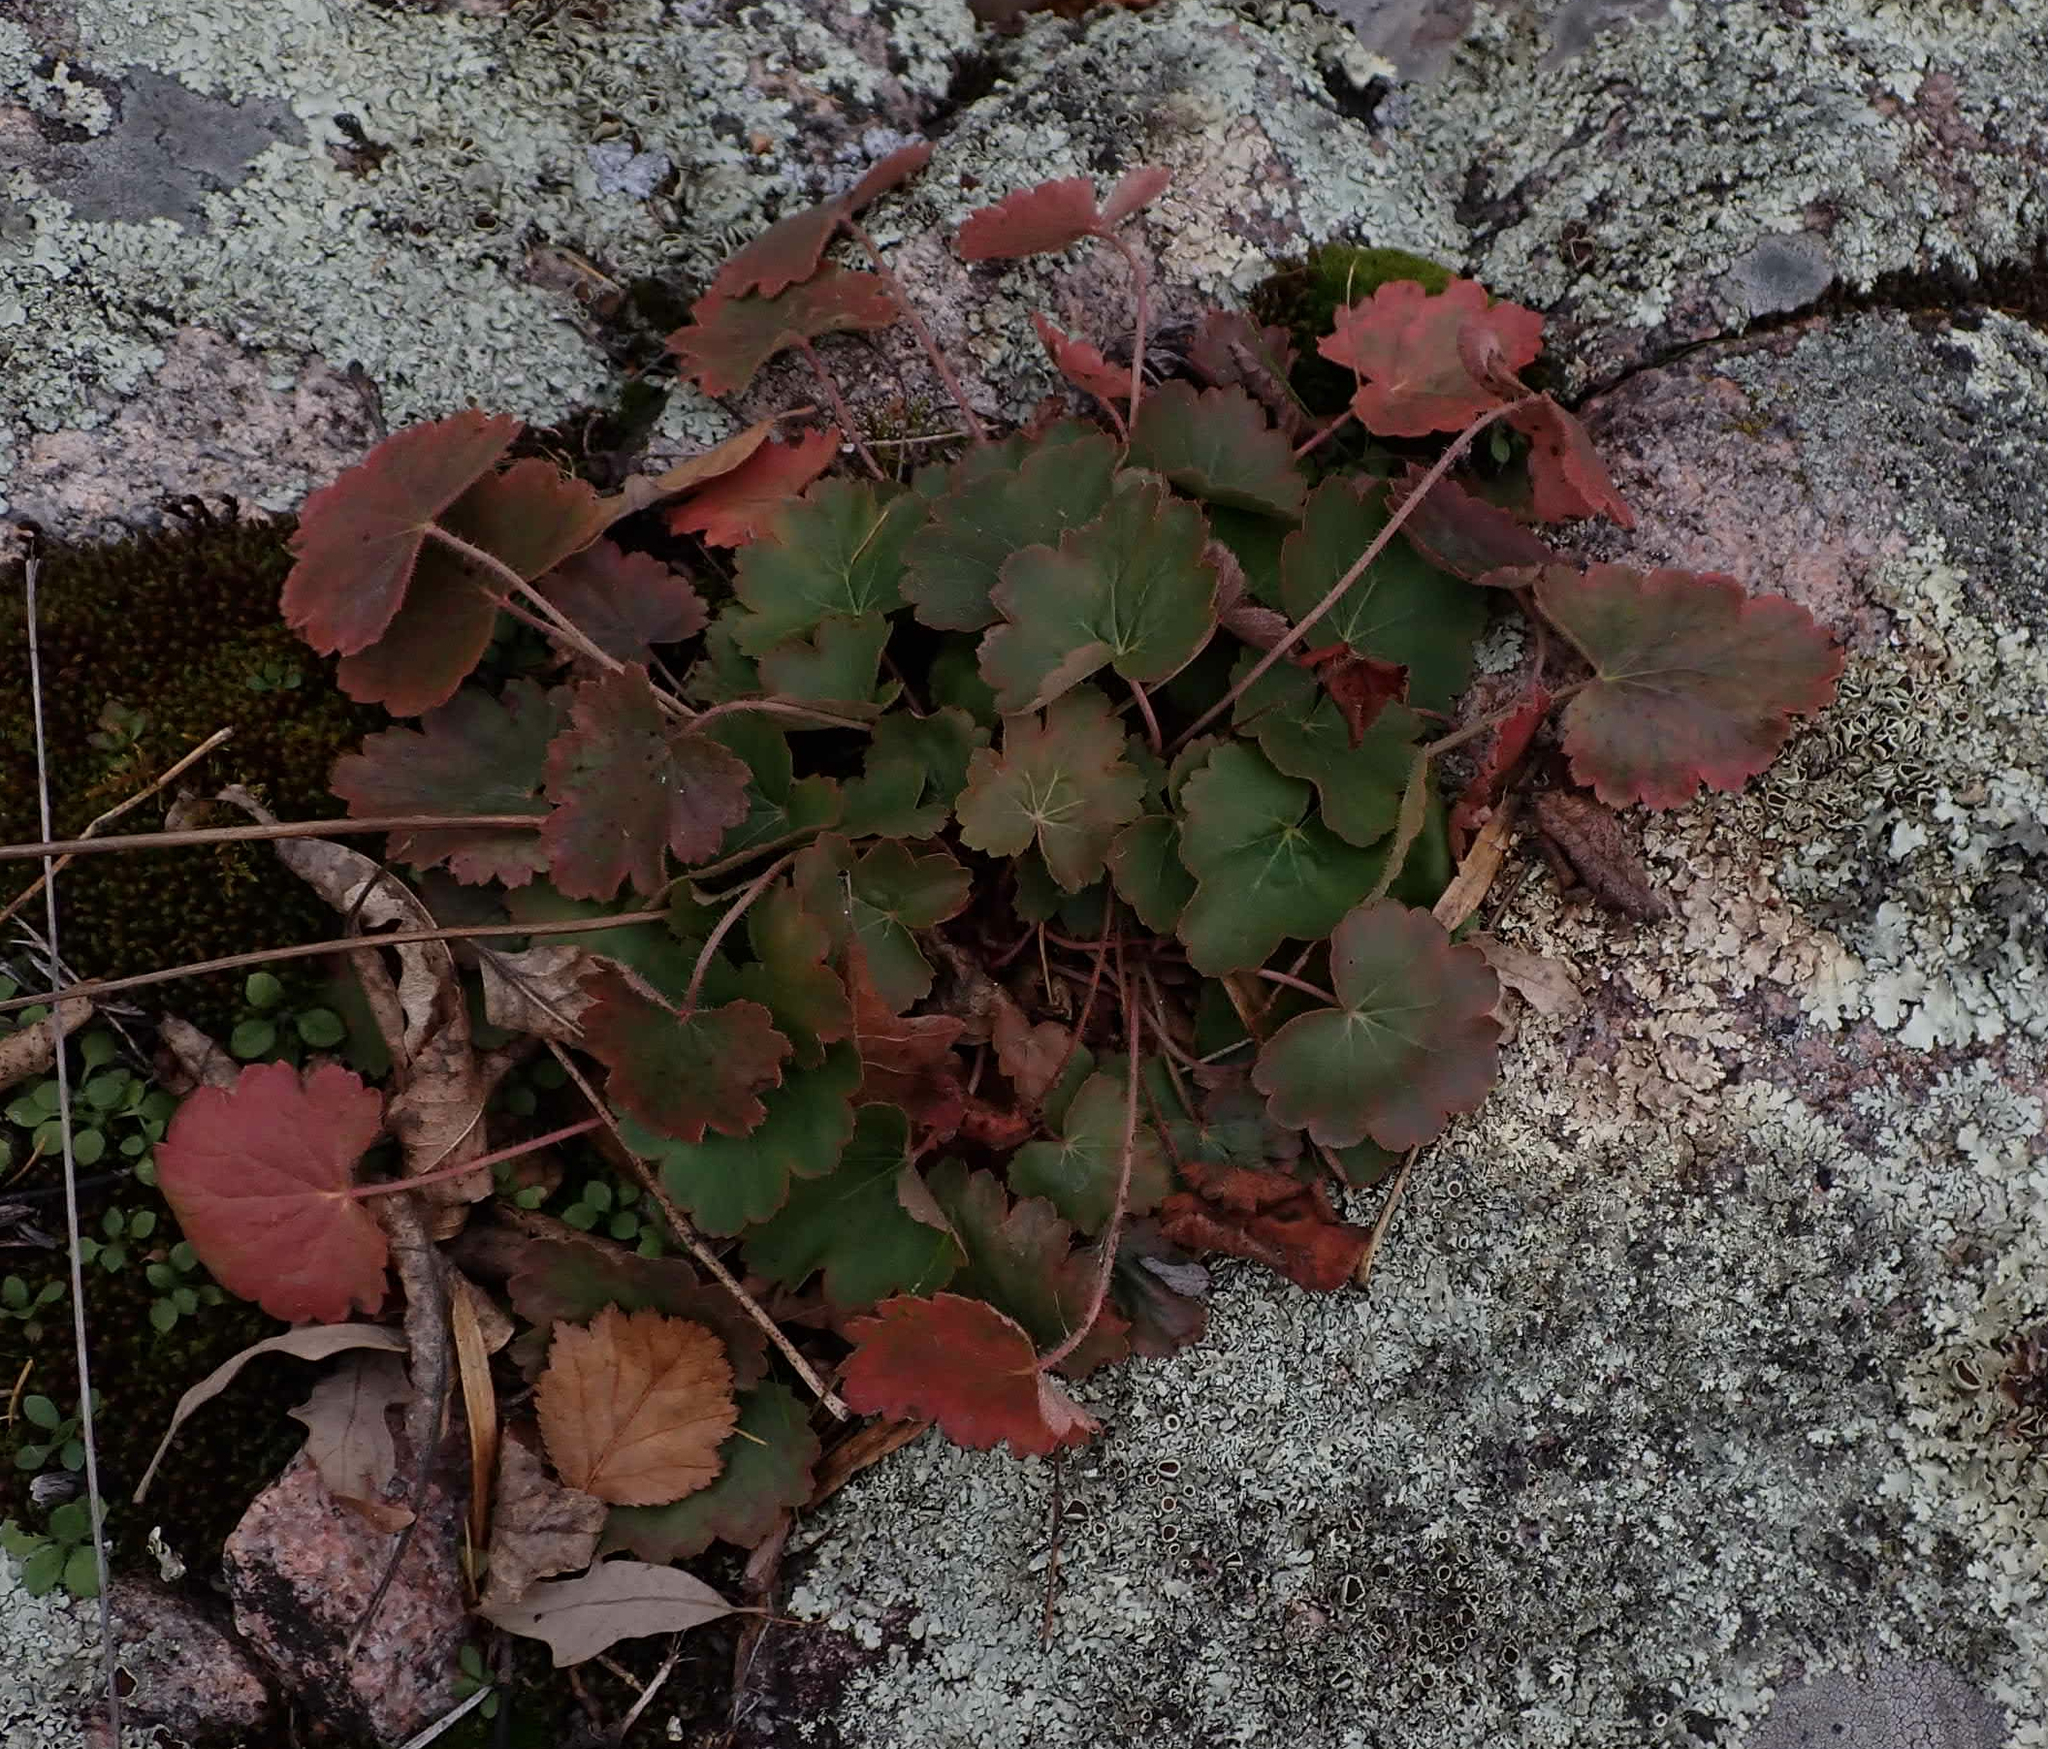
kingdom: Plantae
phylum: Tracheophyta
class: Magnoliopsida
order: Saxifragales
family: Saxifragaceae
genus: Heuchera
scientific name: Heuchera richardsonii
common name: Richardson's alumroot
